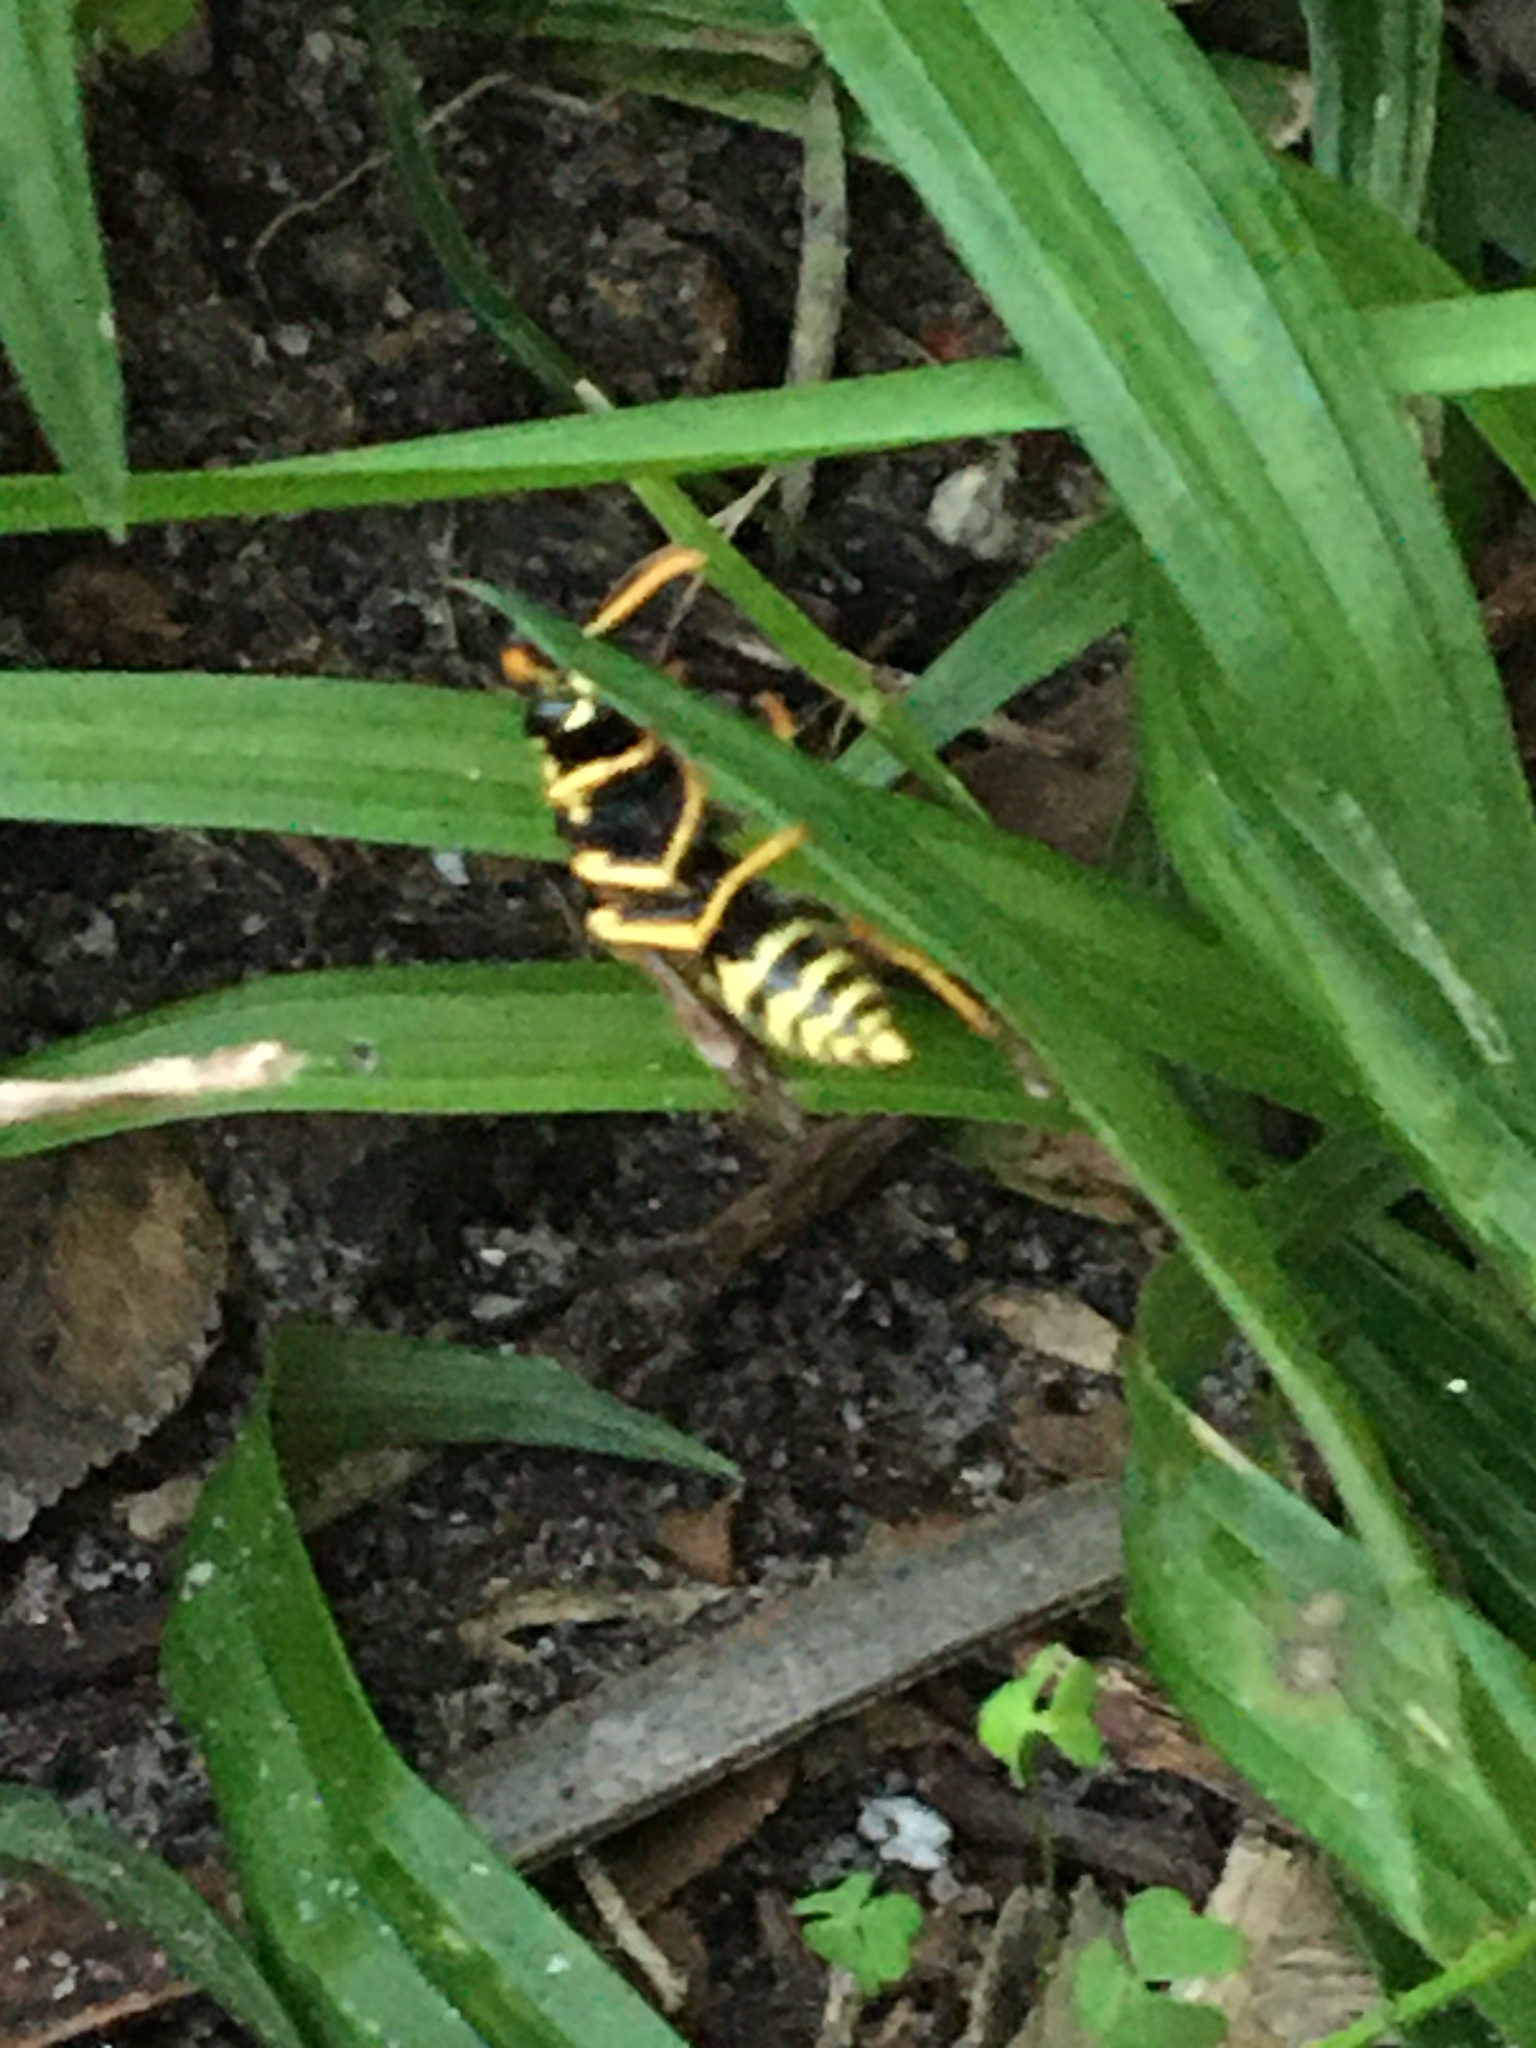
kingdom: Animalia
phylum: Arthropoda
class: Insecta
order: Hymenoptera
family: Eumenidae
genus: Polistes
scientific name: Polistes dominula
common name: Paper wasp
